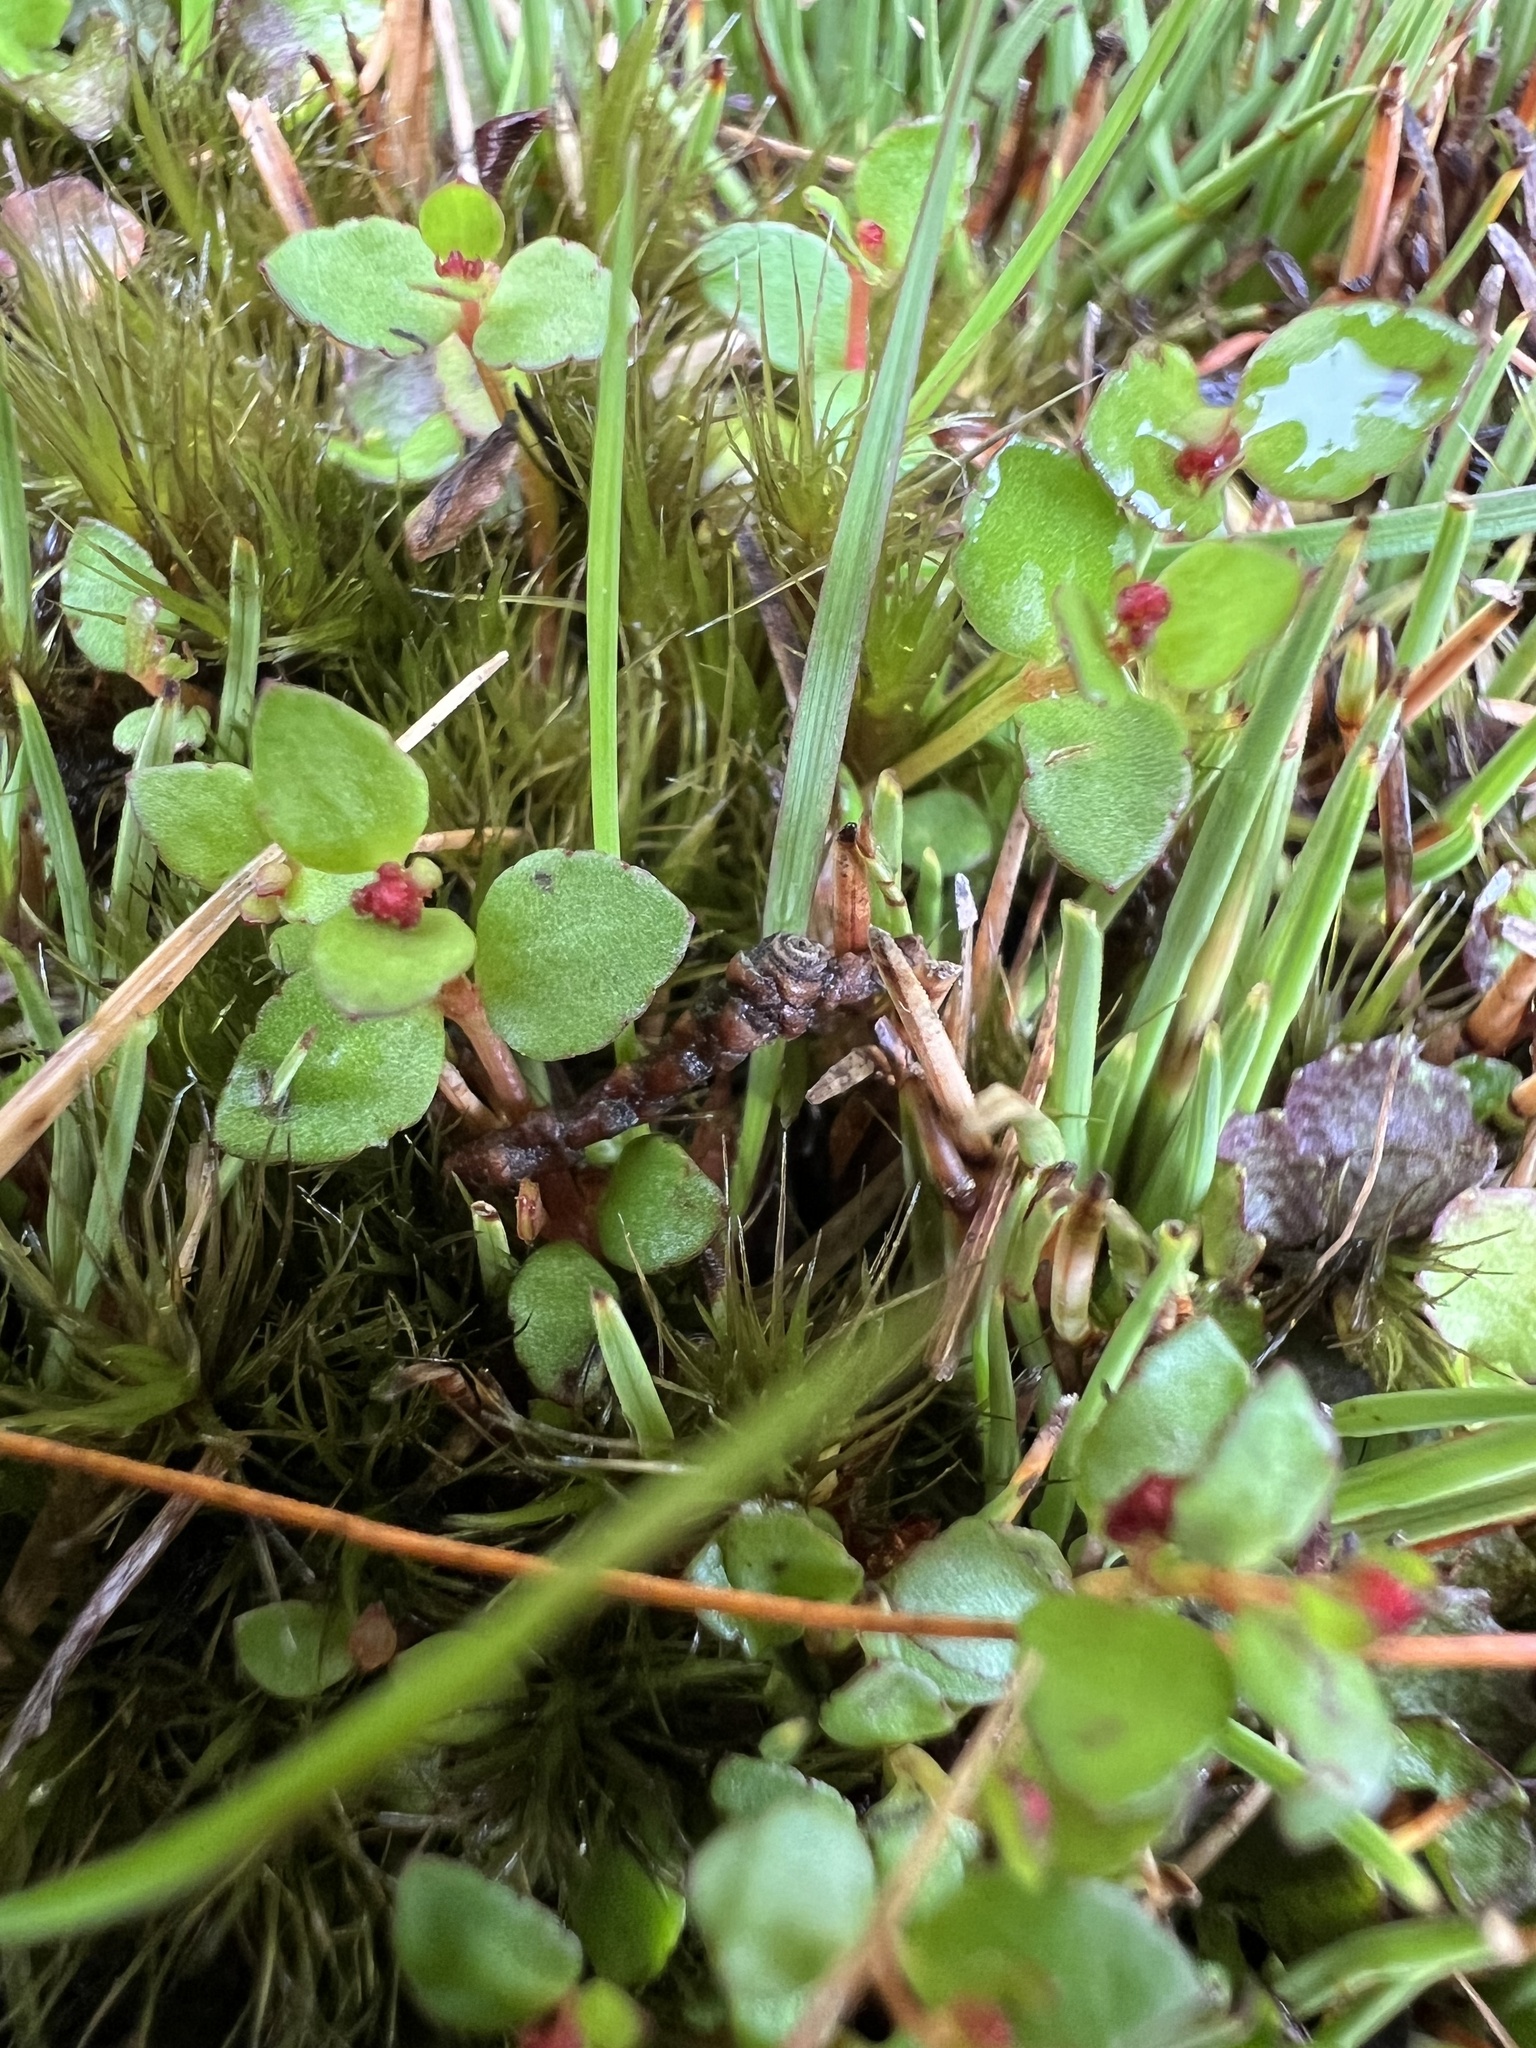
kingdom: Plantae
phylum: Tracheophyta
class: Magnoliopsida
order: Saxifragales
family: Haloragaceae
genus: Gonocarpus
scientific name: Gonocarpus micranthus
